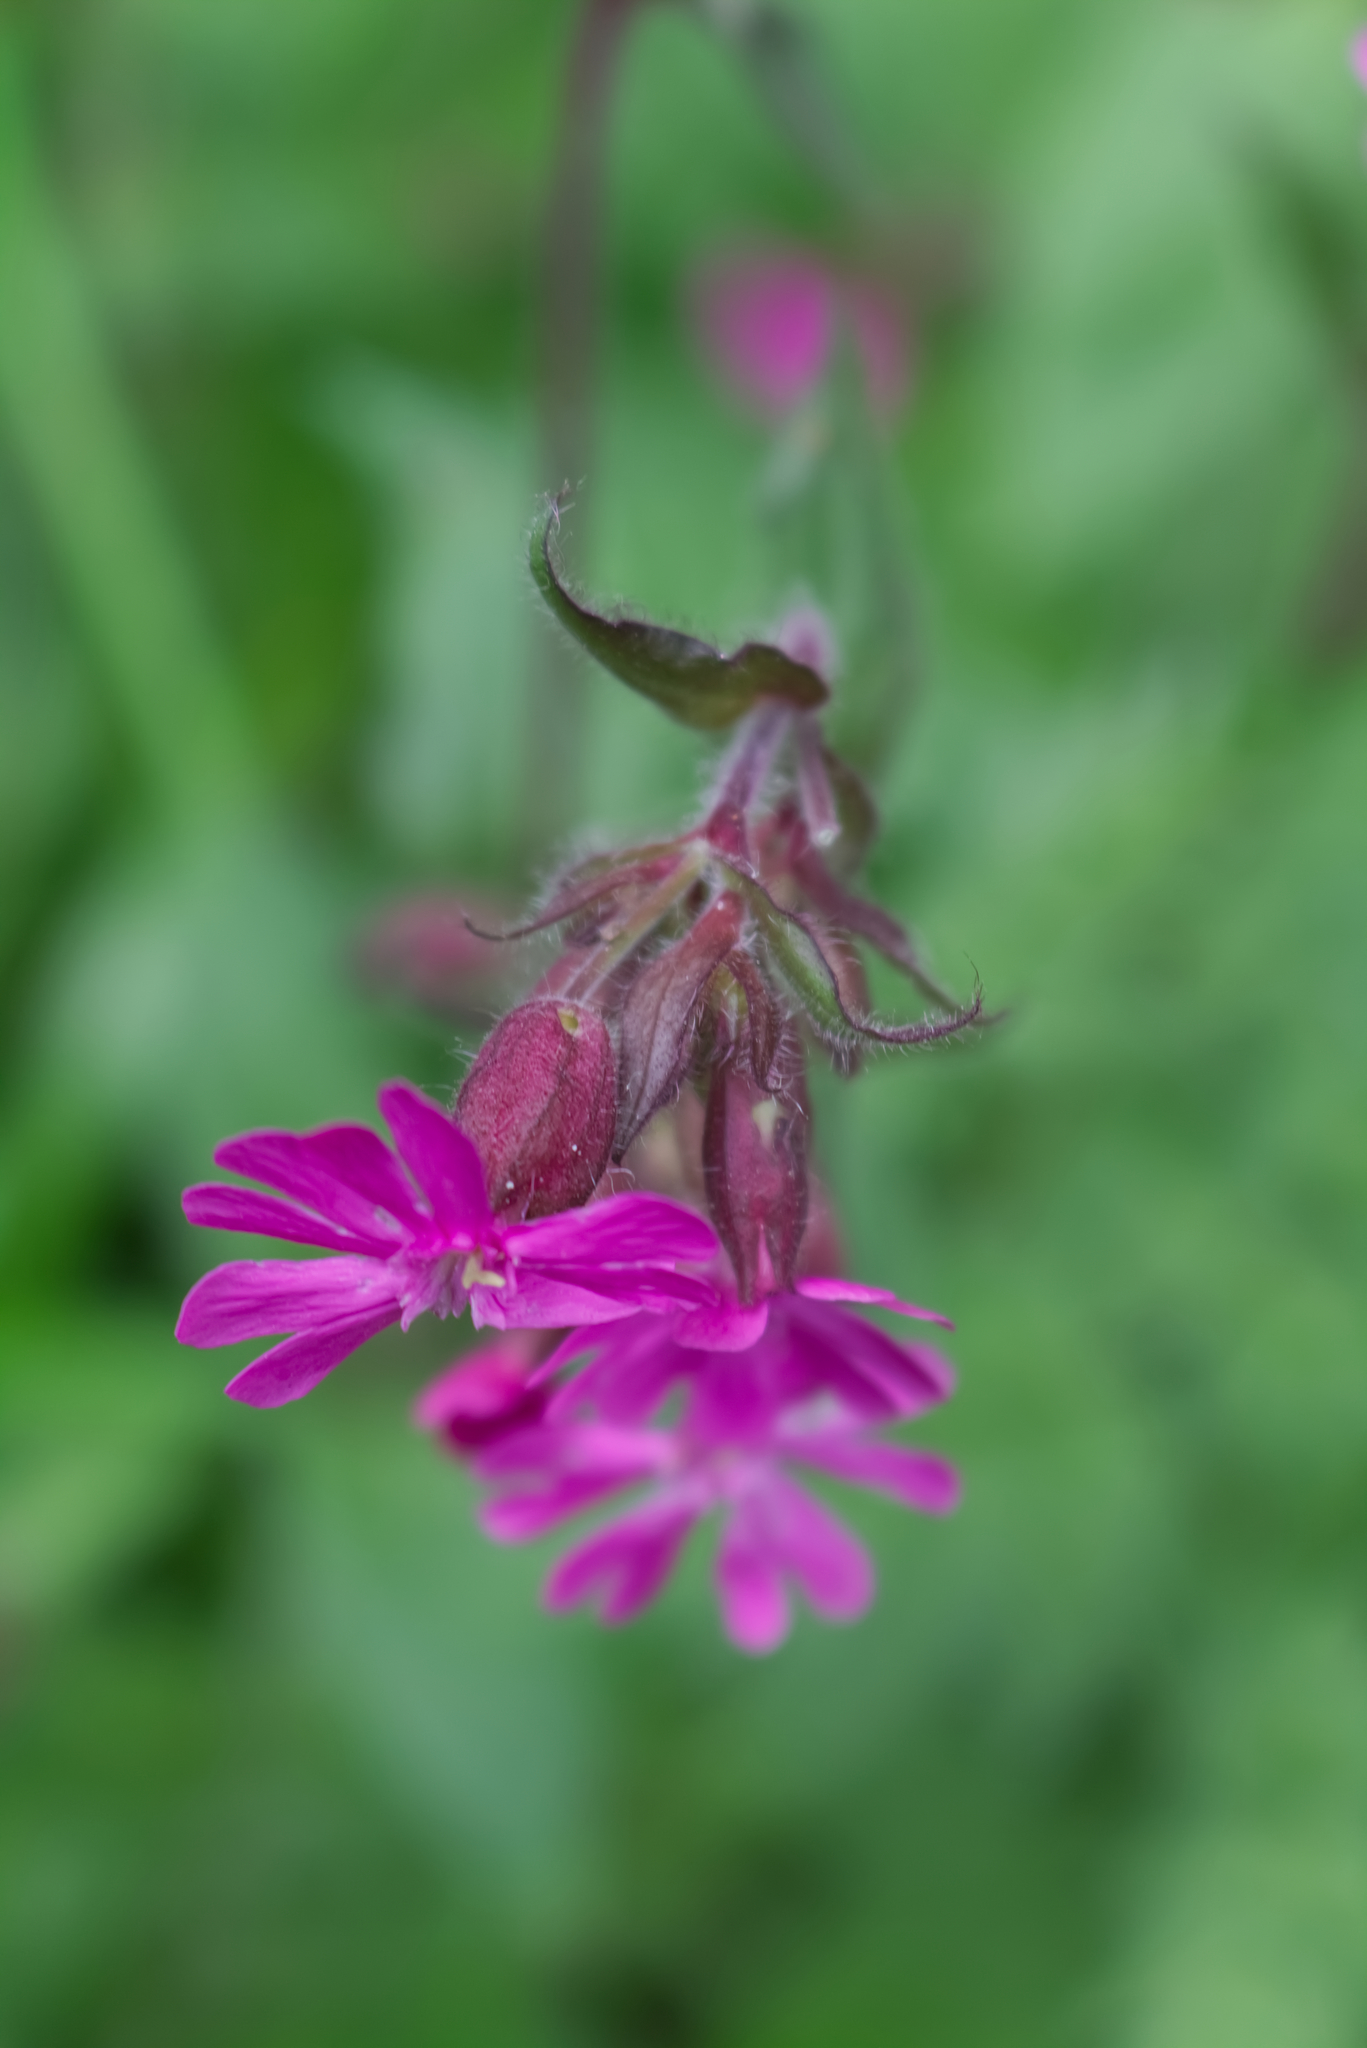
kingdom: Plantae
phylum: Tracheophyta
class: Magnoliopsida
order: Caryophyllales
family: Caryophyllaceae
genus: Silene
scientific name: Silene dioica
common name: Red campion
